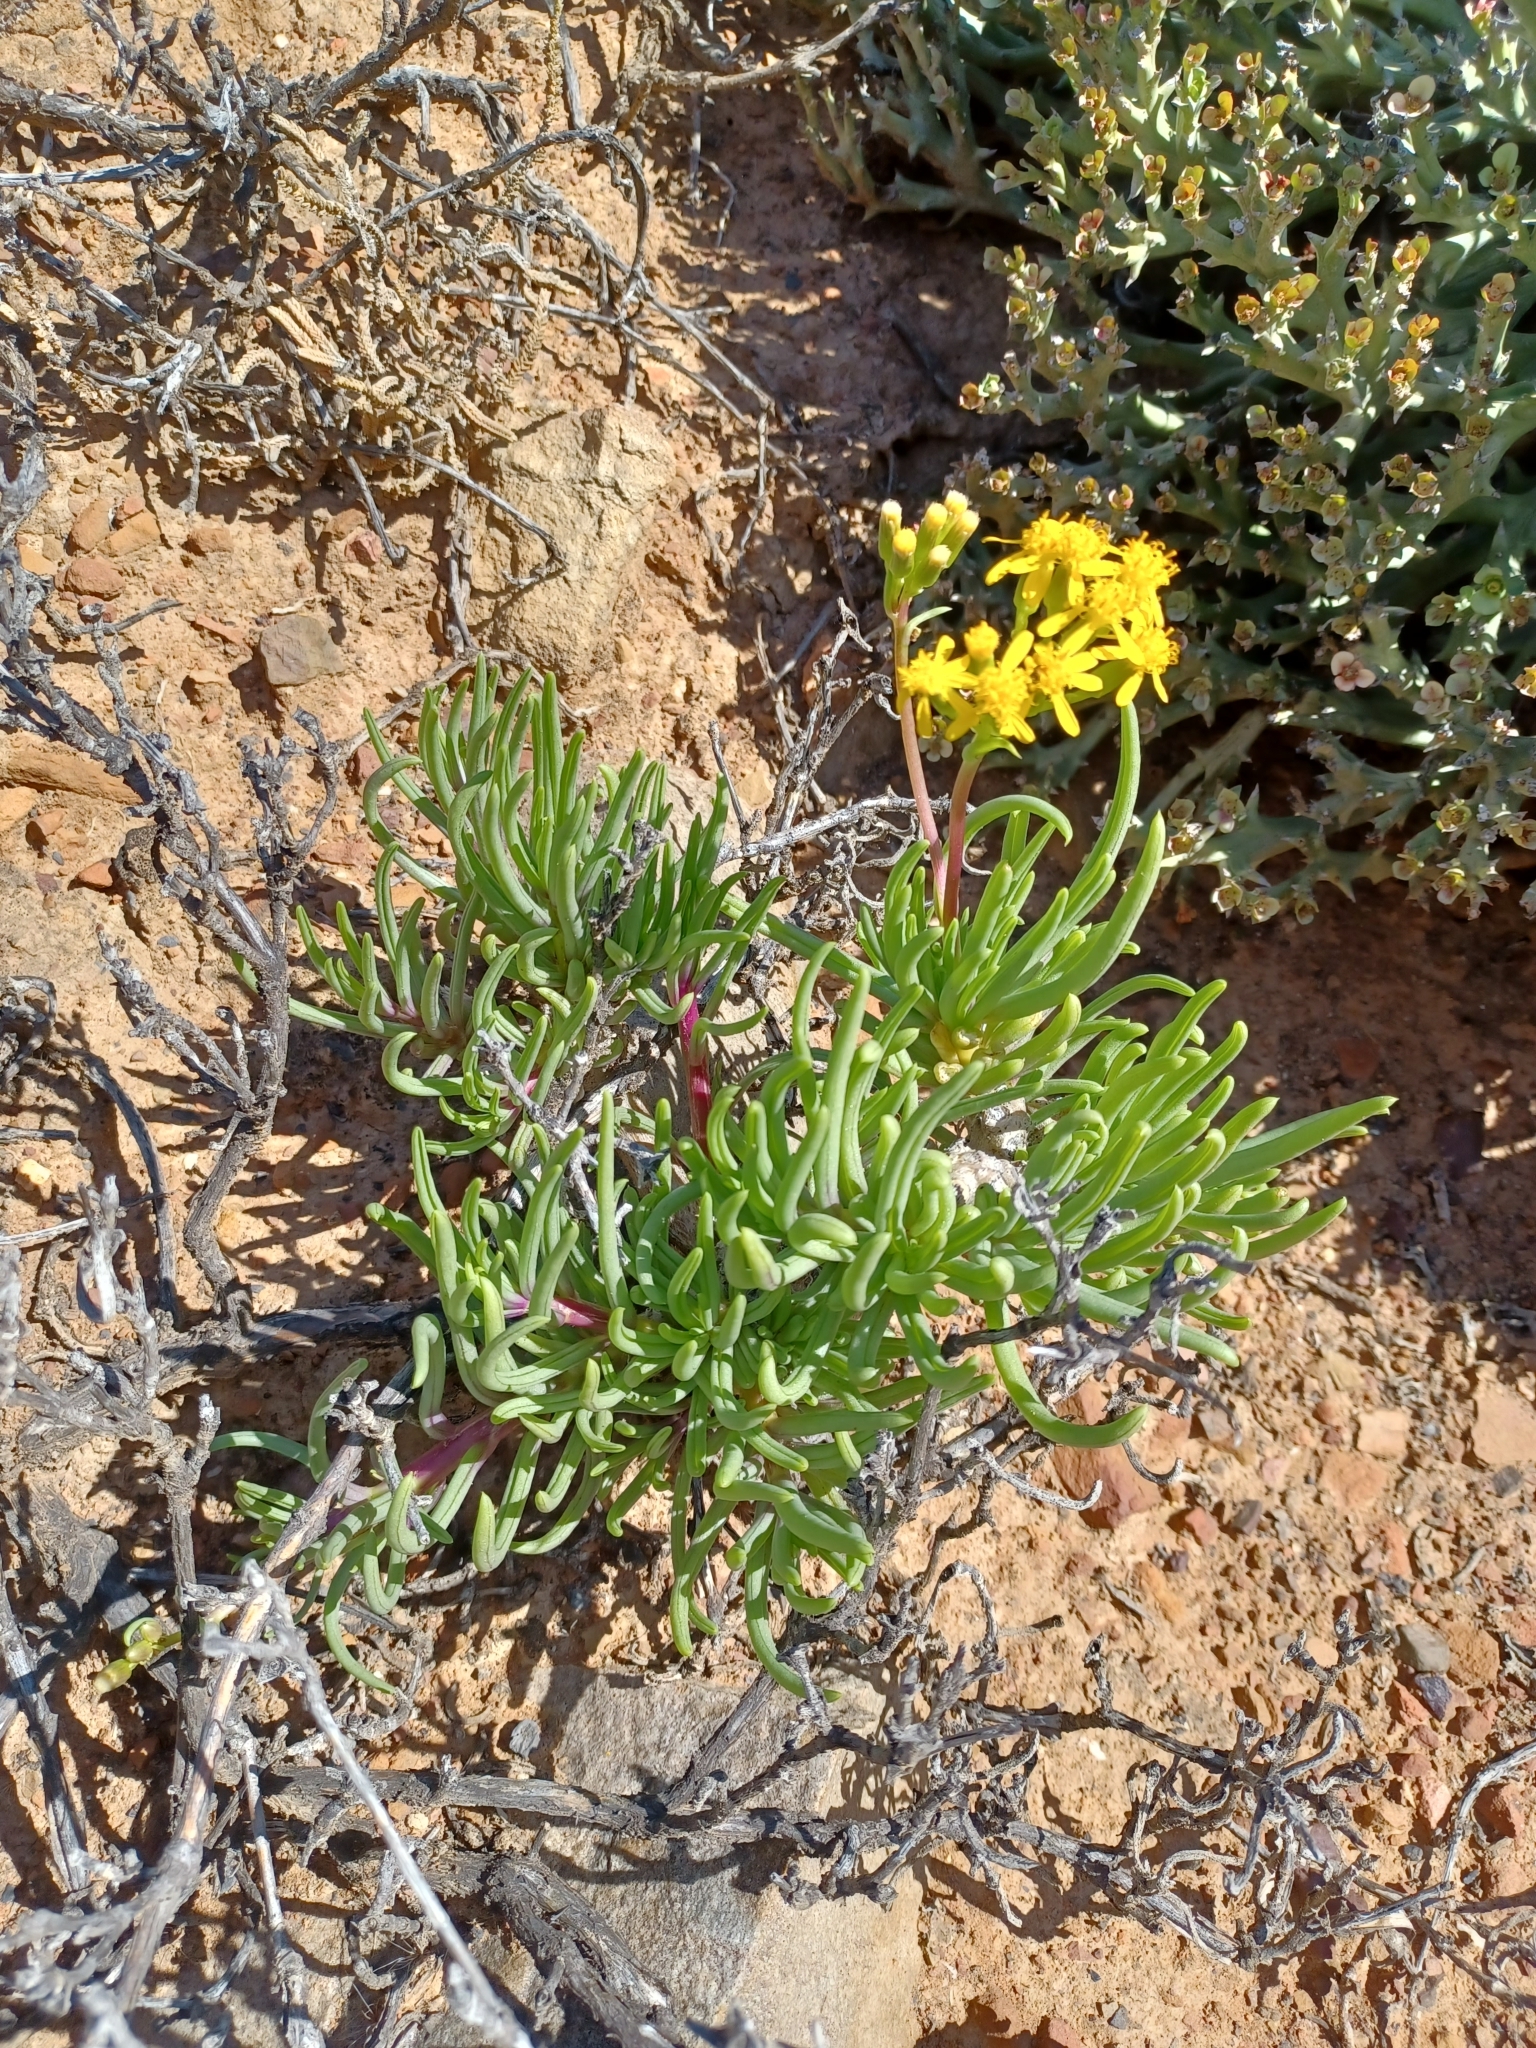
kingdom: Plantae
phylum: Tracheophyta
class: Magnoliopsida
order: Asterales
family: Asteraceae
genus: Curio
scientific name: Curio corymbifer
